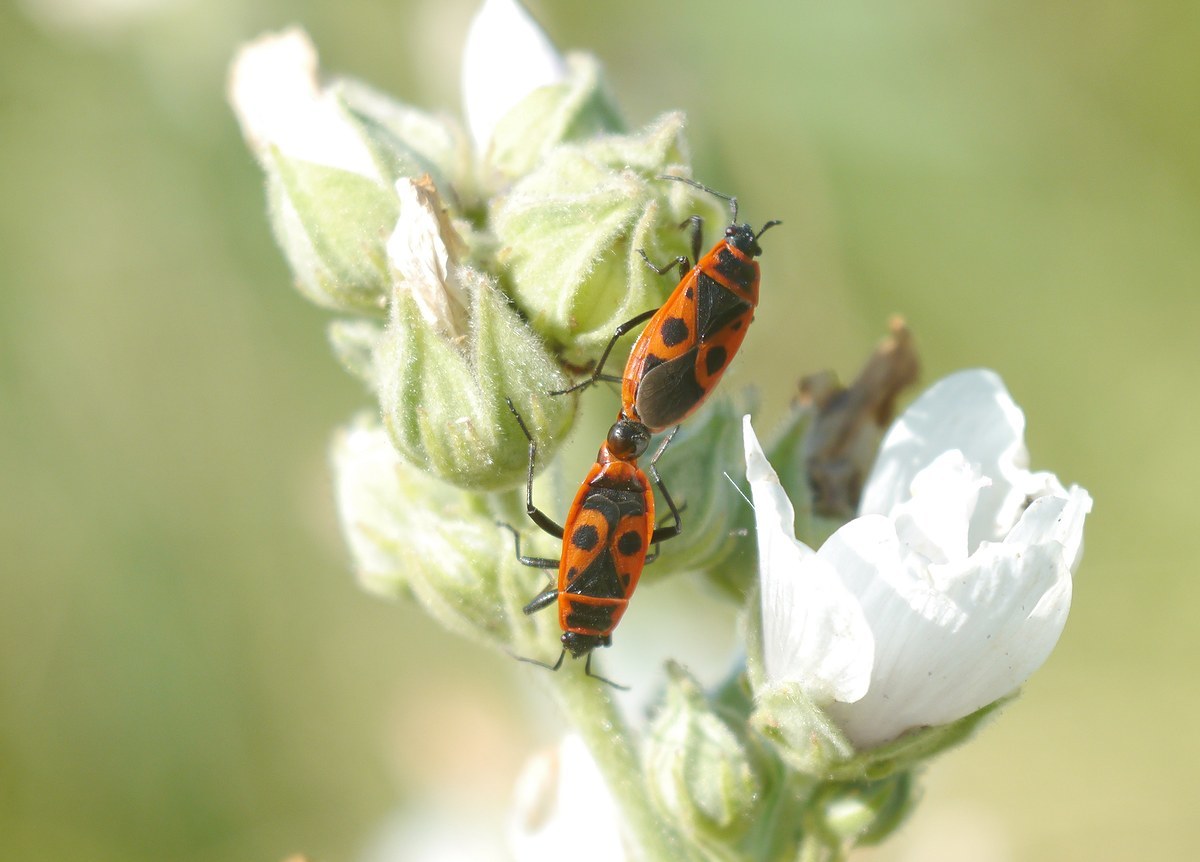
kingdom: Animalia
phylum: Arthropoda
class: Insecta
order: Hemiptera
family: Pyrrhocoridae
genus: Pyrrhocoris
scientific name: Pyrrhocoris apterus
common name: Firebug
